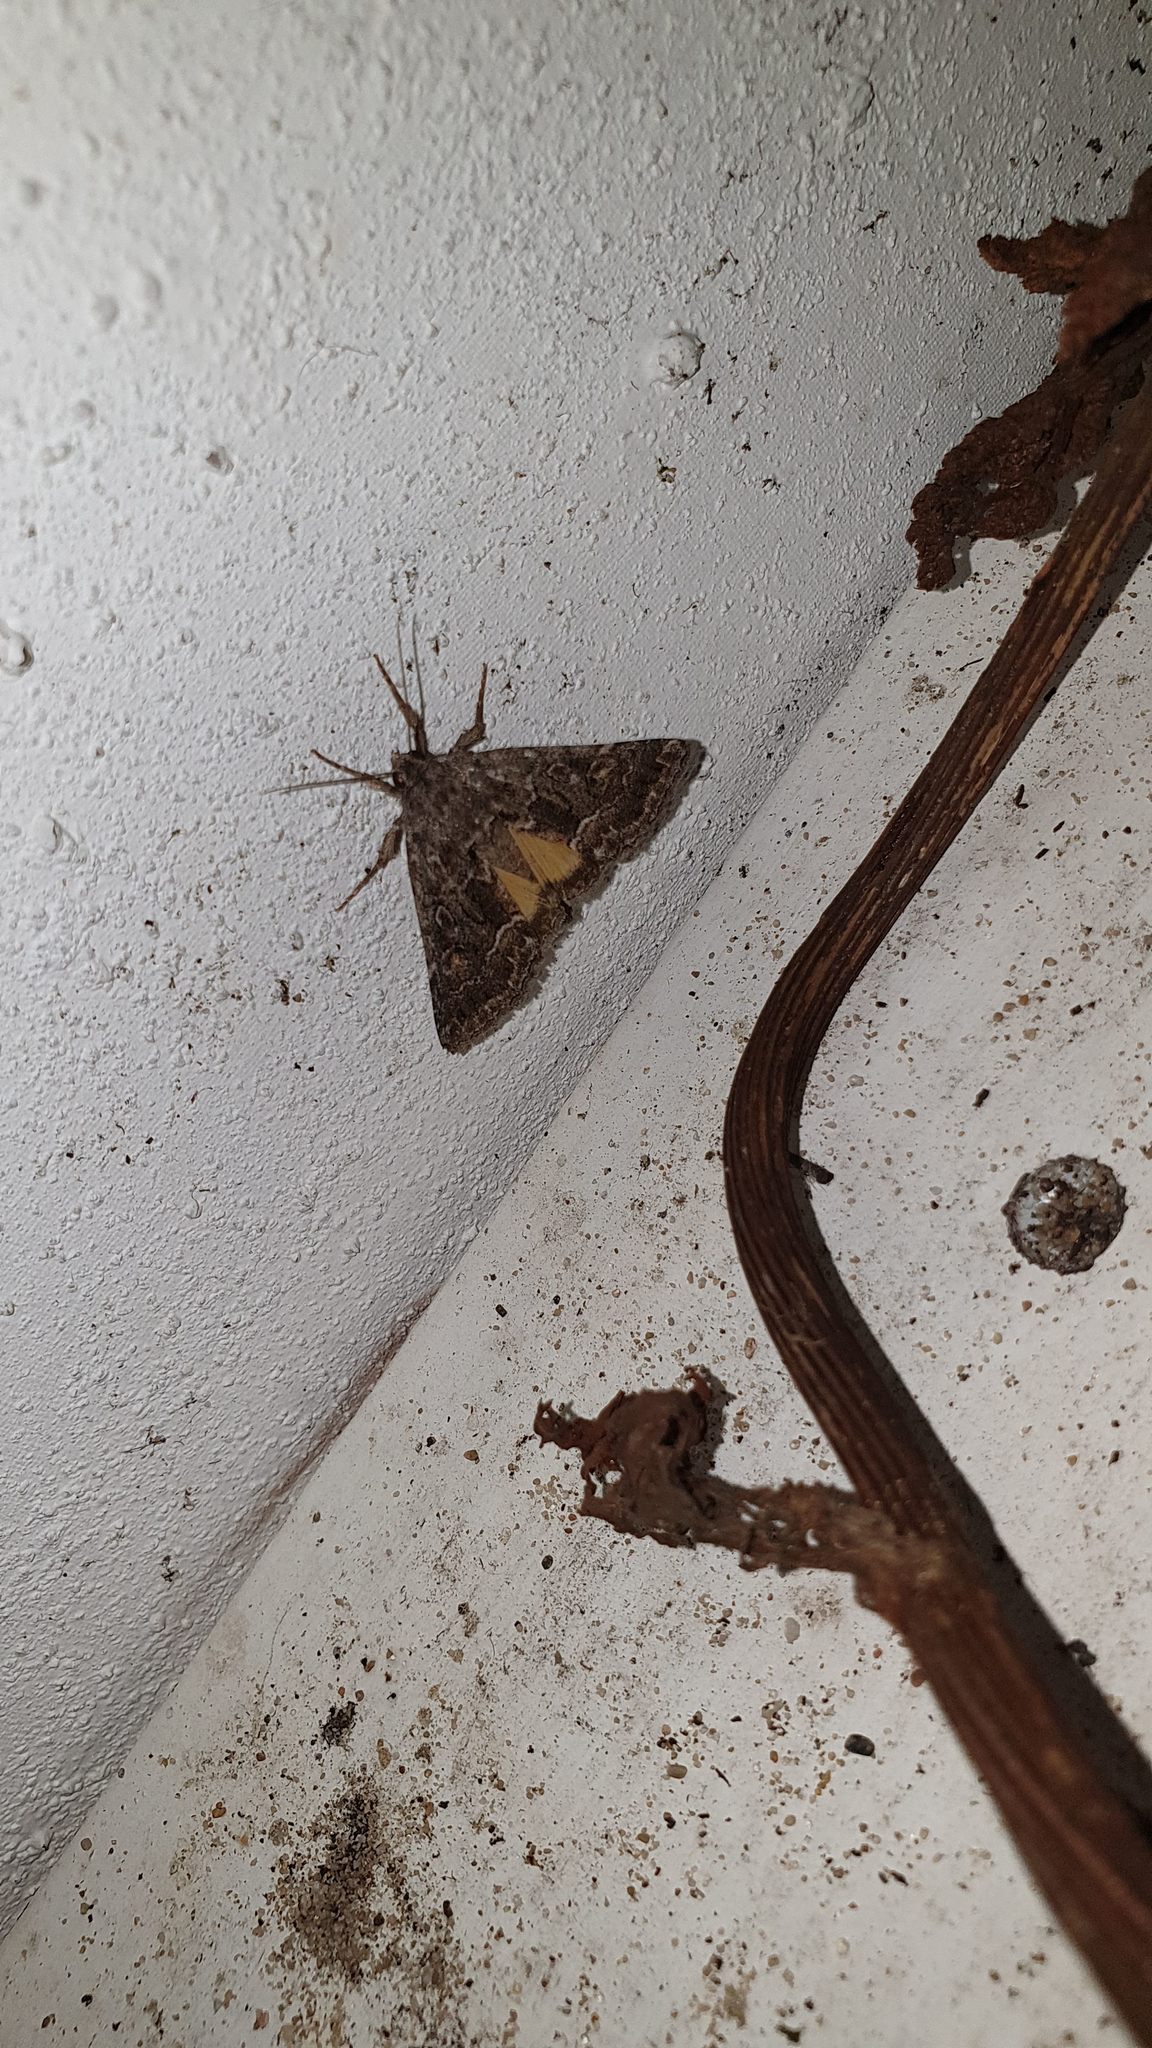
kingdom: Animalia
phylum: Arthropoda
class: Insecta
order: Lepidoptera
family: Noctuidae
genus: Thalpophila
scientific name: Thalpophila matura
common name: Straw underwing
